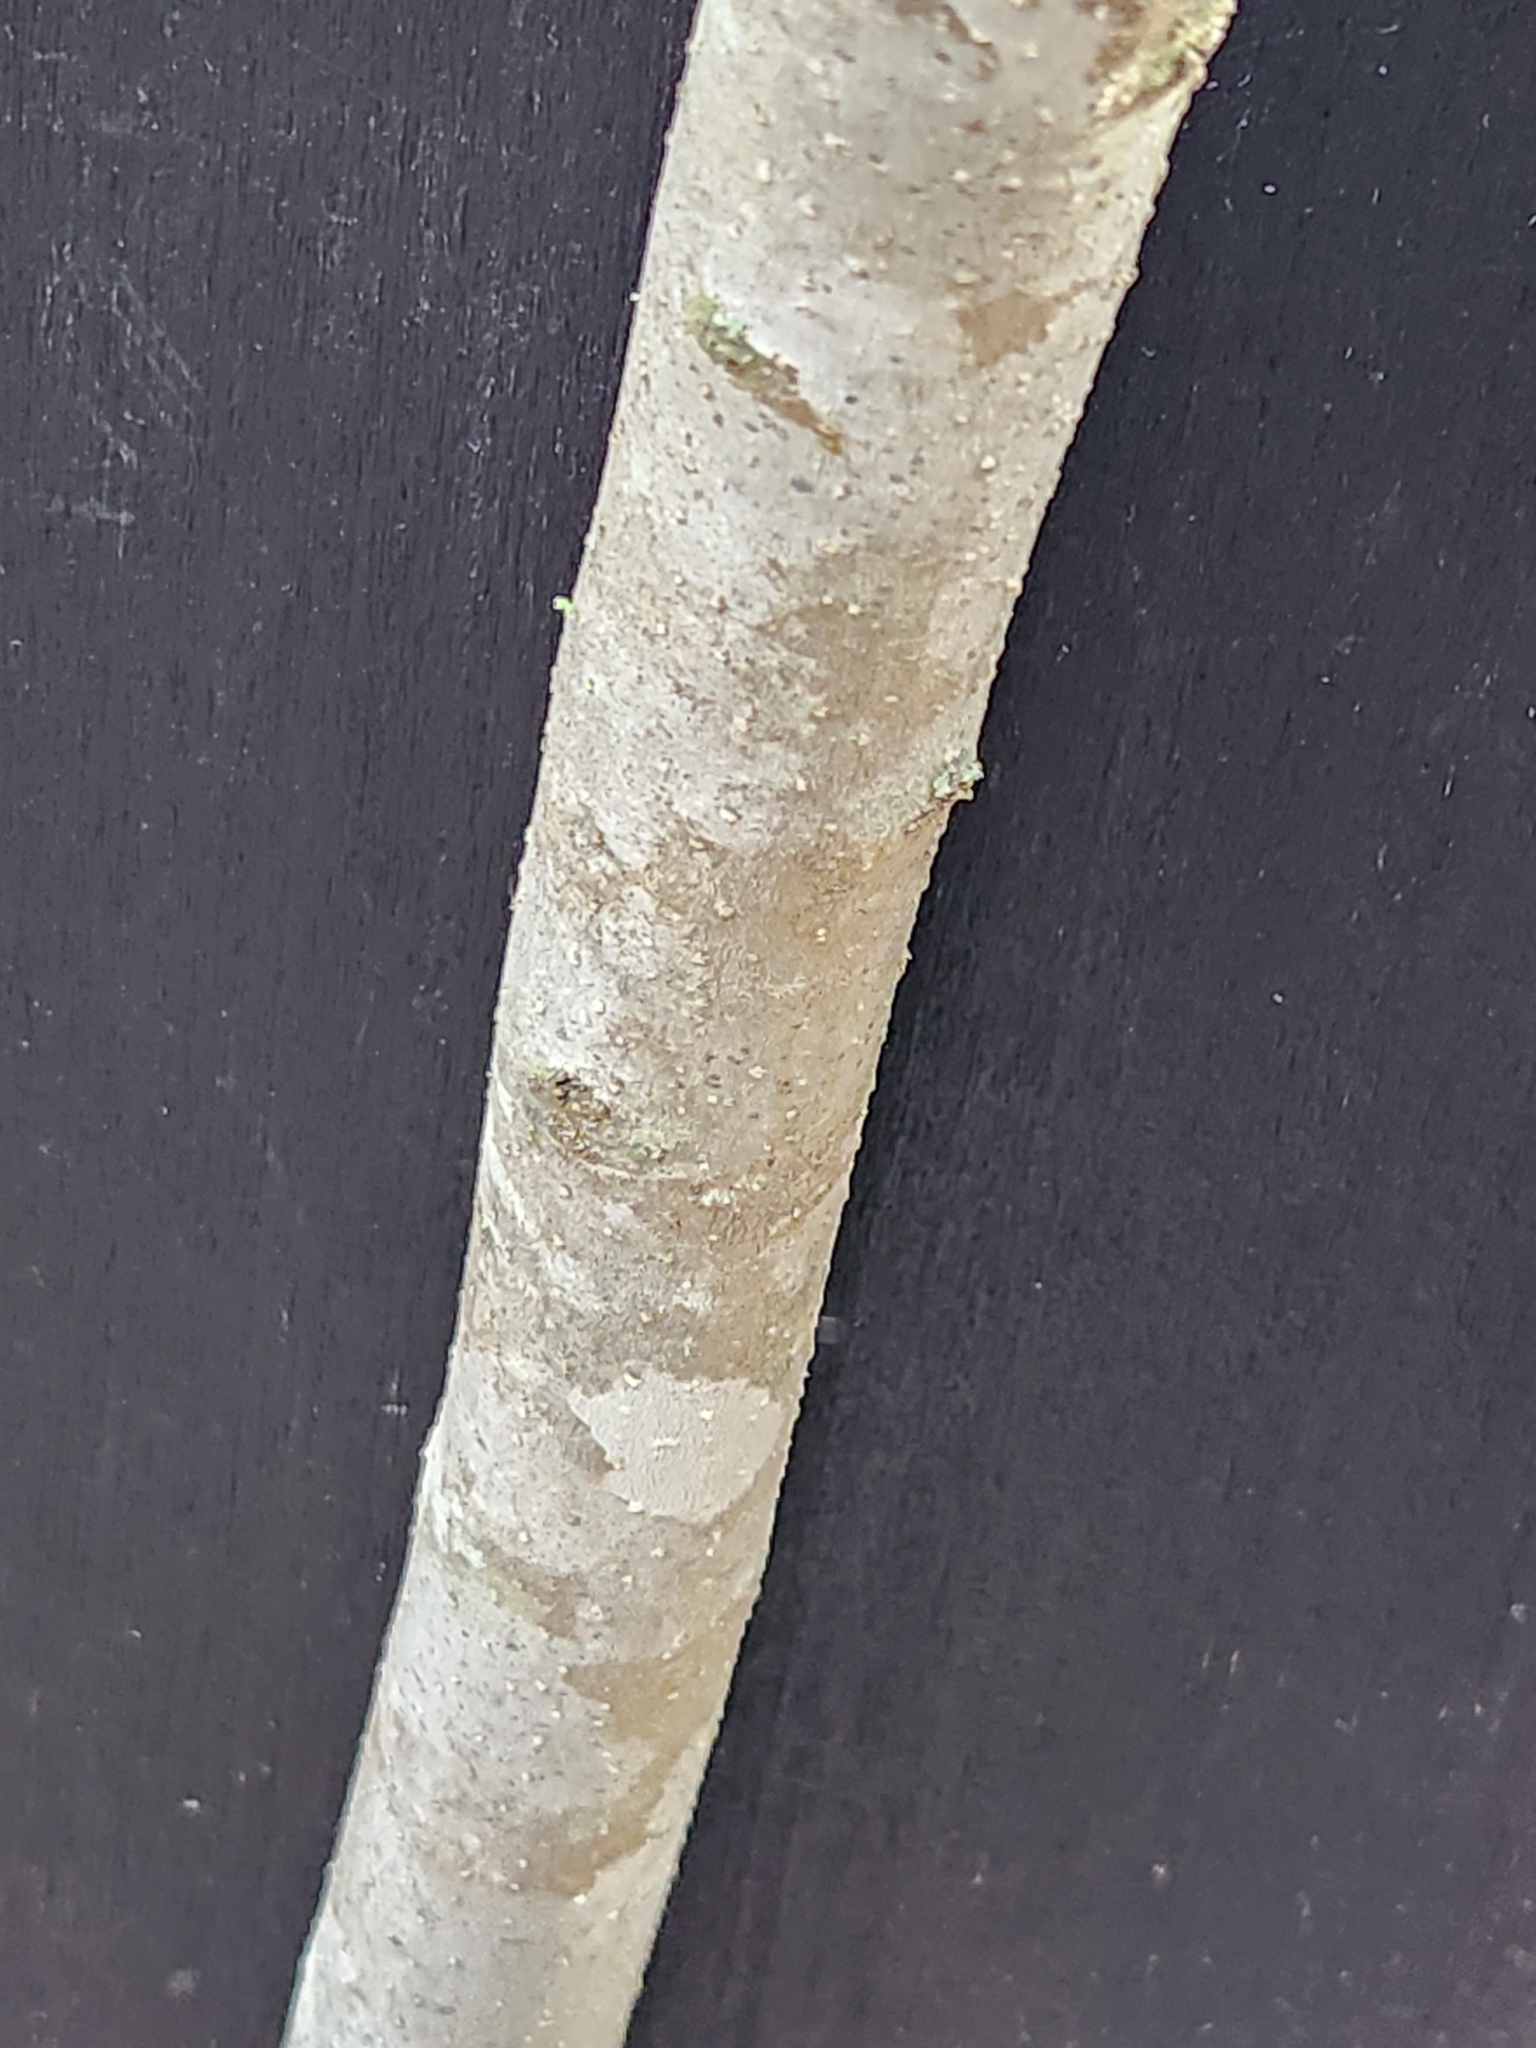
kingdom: Plantae
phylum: Tracheophyta
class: Magnoliopsida
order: Lamiales
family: Oleaceae
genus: Forestiera
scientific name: Forestiera reticulata
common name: Netleaf swamp-privet
